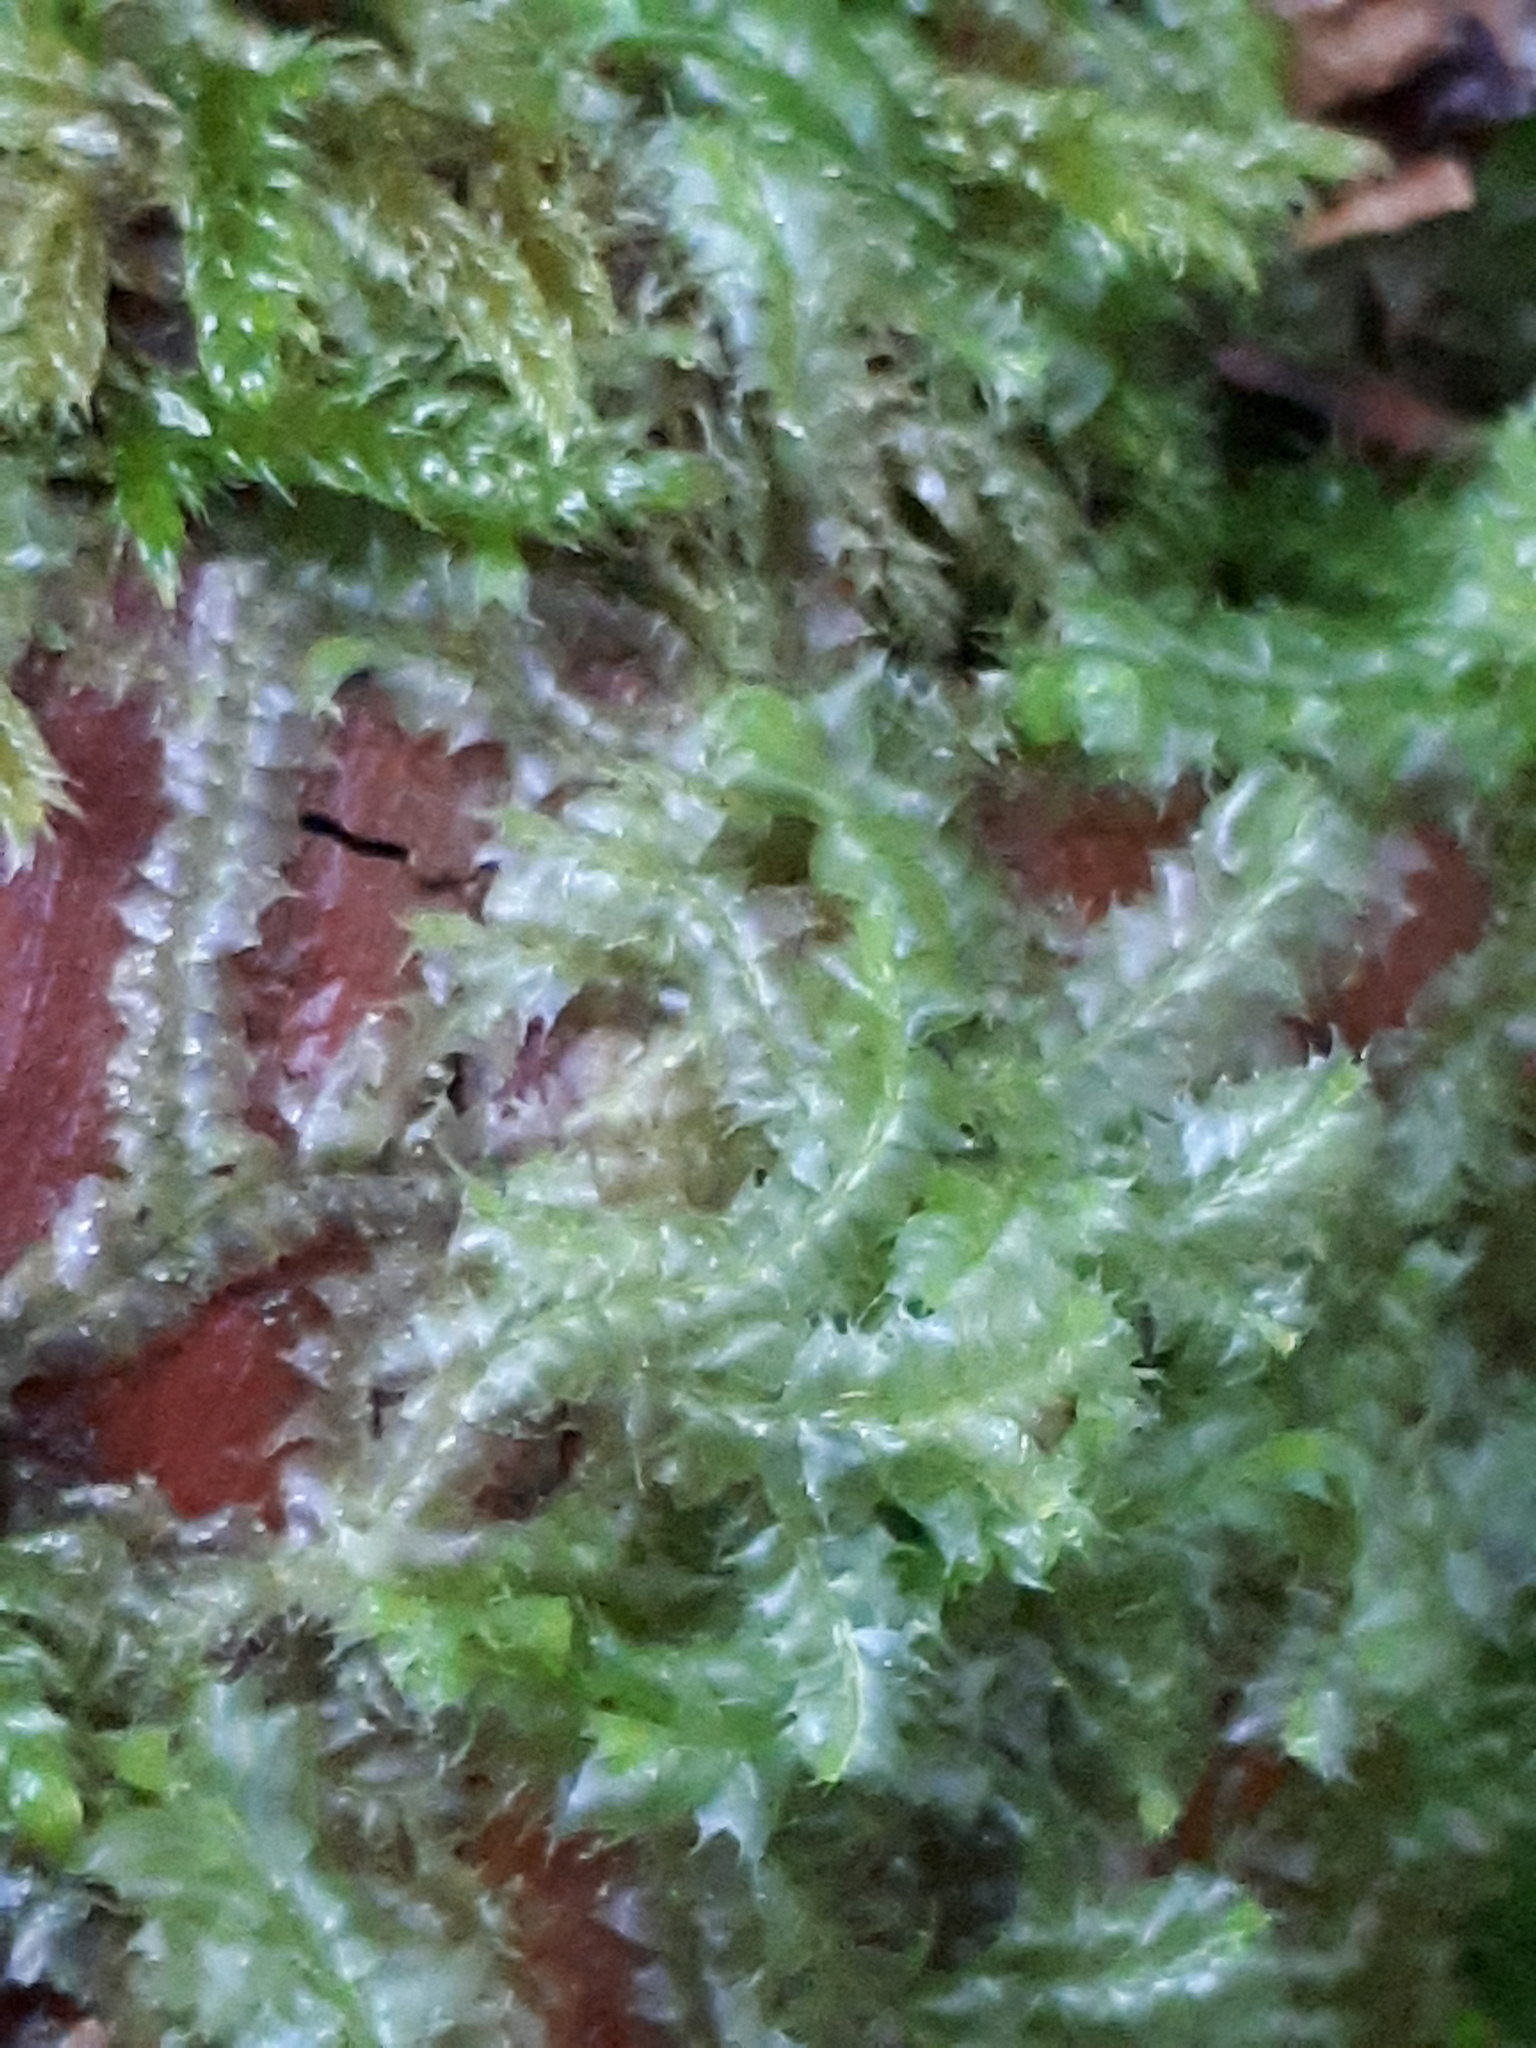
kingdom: Plantae
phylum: Marchantiophyta
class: Jungermanniopsida
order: Jungermanniales
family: Lophocoleaceae
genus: Lophocolea
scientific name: Lophocolea bidentata
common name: Bifid crestwort
